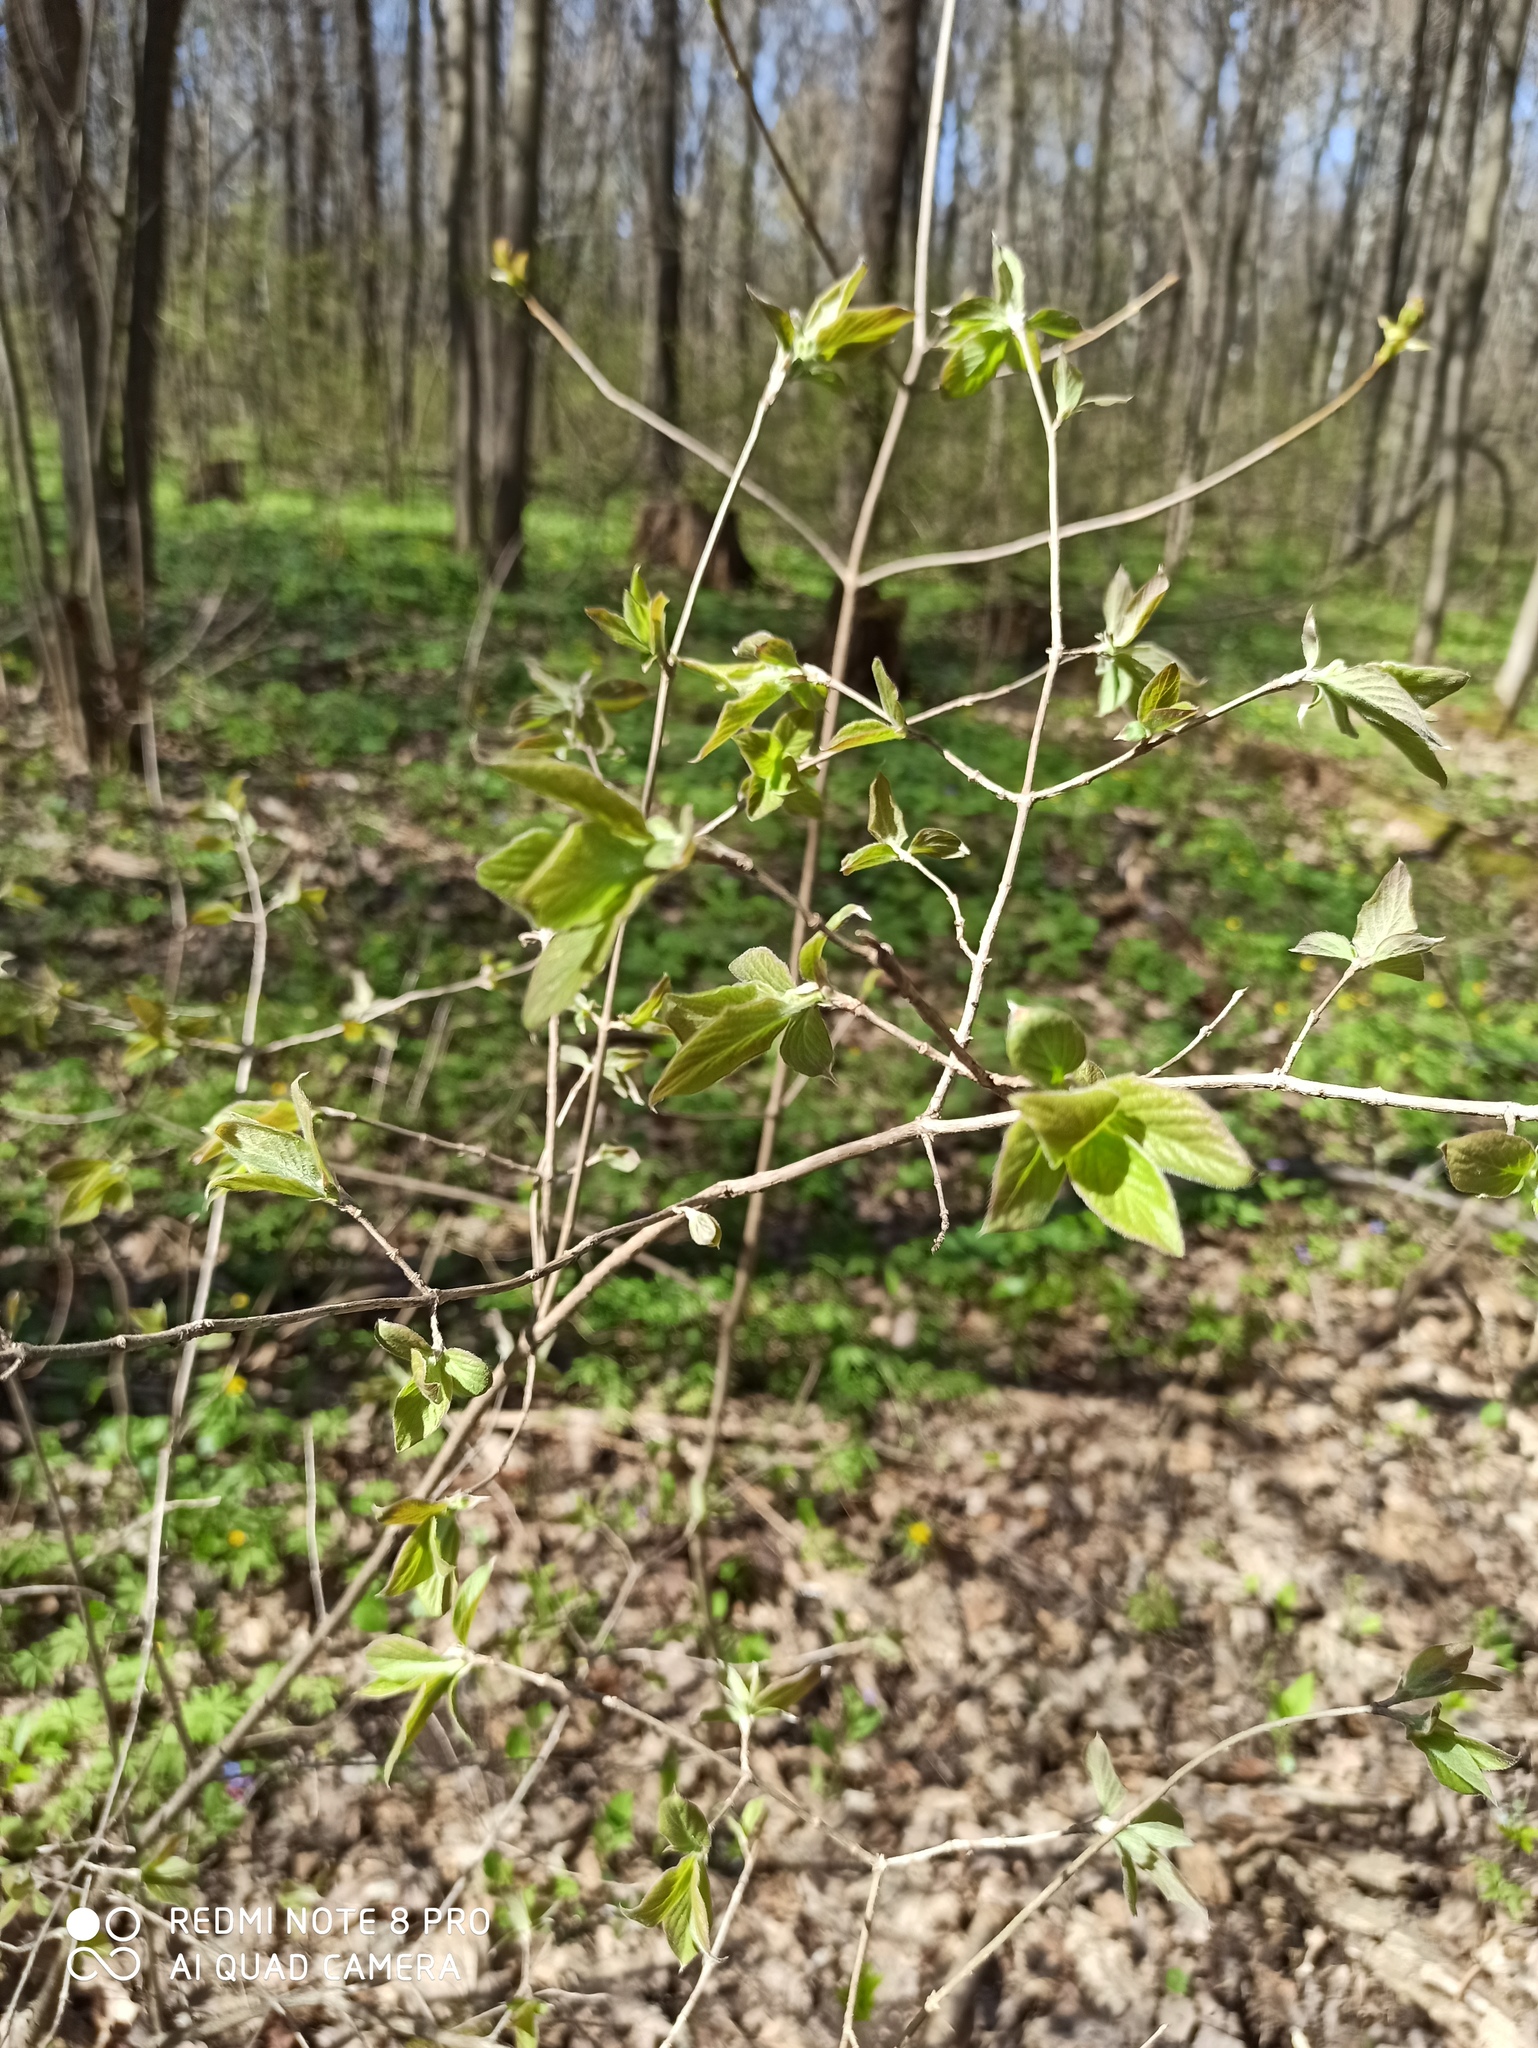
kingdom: Plantae
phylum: Tracheophyta
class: Magnoliopsida
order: Dipsacales
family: Caprifoliaceae
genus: Lonicera
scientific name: Lonicera xylosteum
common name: Fly honeysuckle
